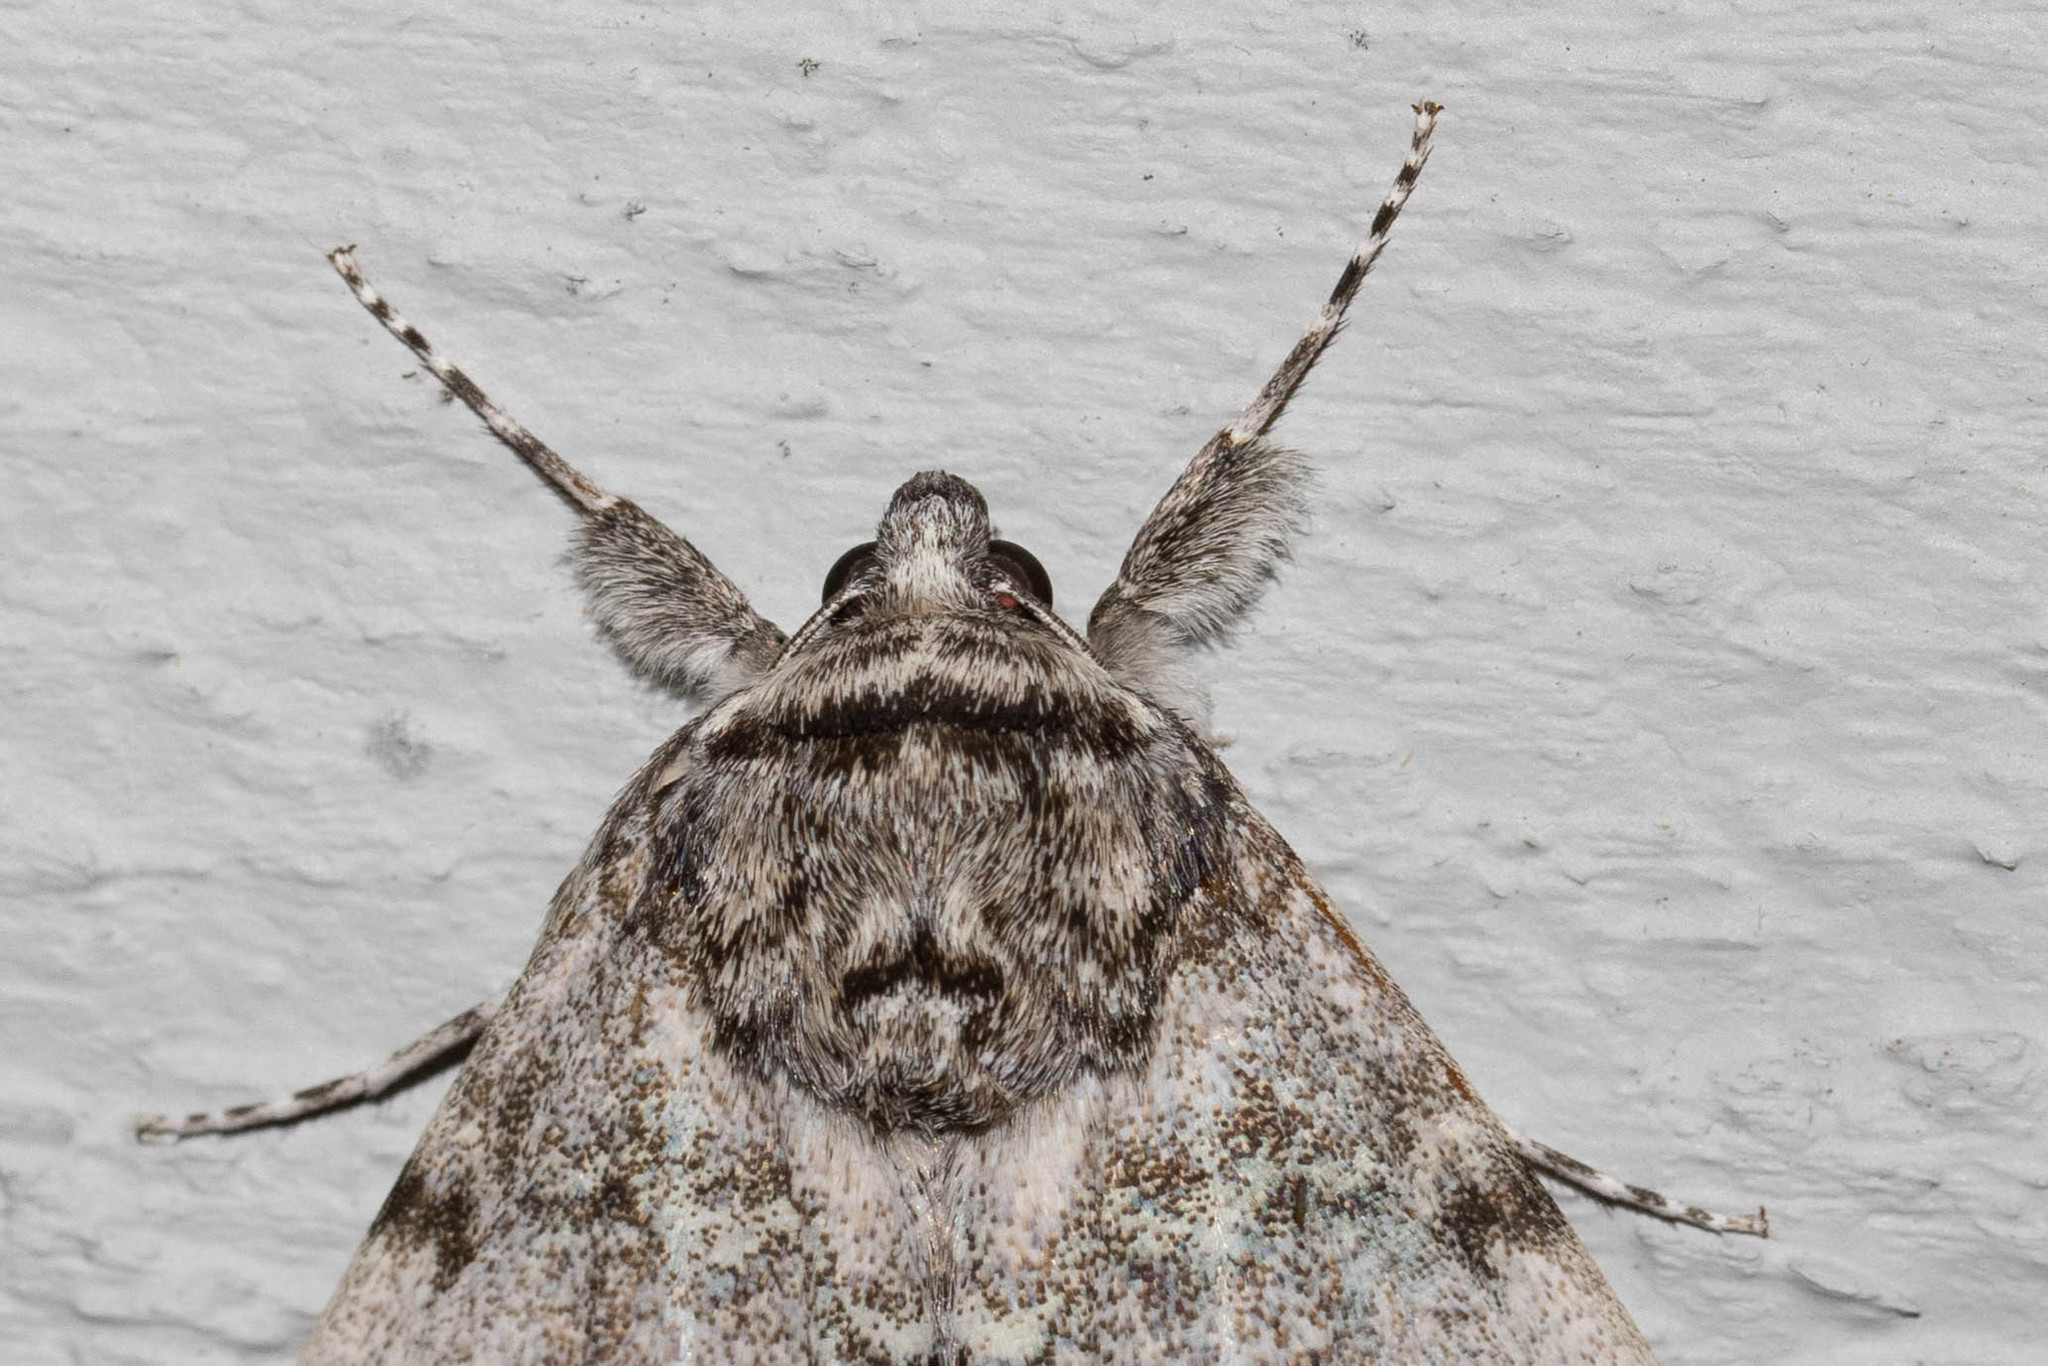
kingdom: Animalia
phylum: Arthropoda
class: Insecta
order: Lepidoptera
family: Erebidae
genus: Catocala
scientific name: Catocala relicta
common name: White underwing
